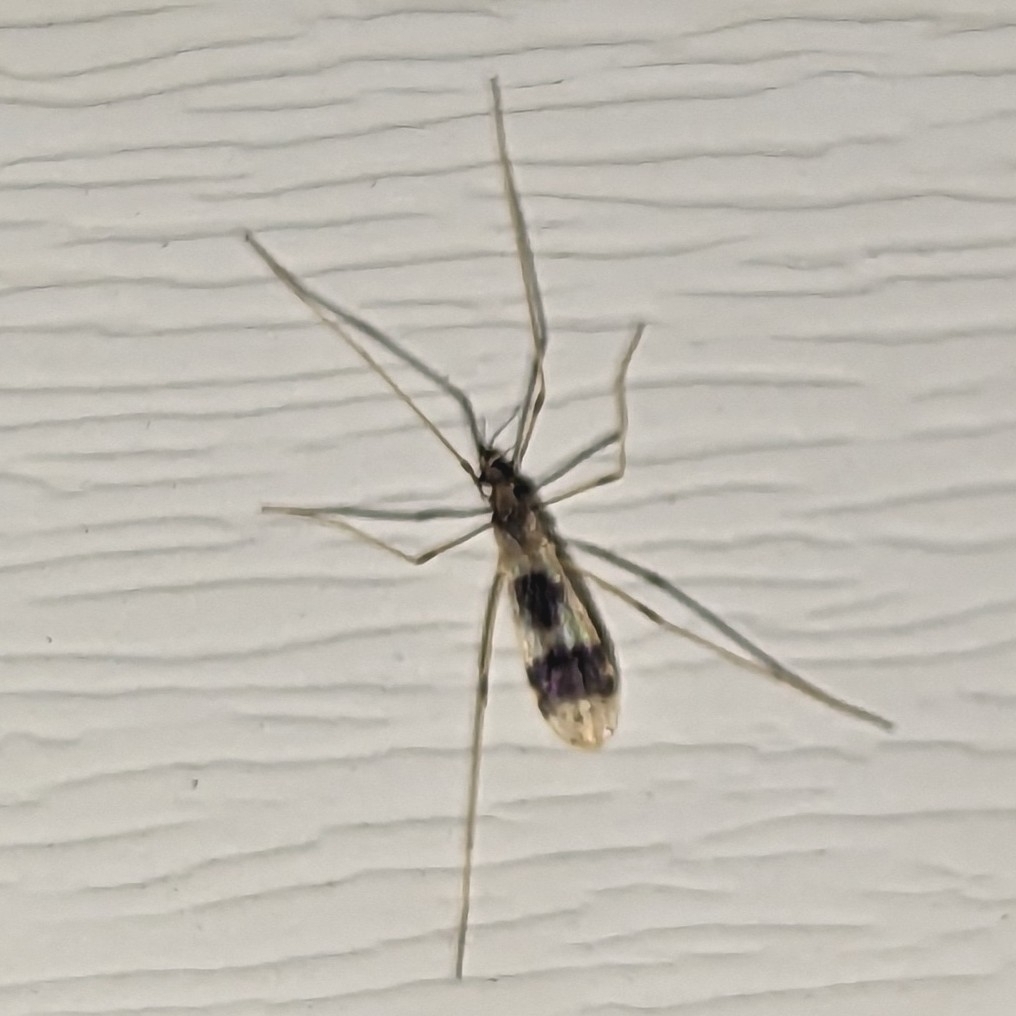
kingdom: Animalia
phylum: Arthropoda
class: Insecta
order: Diptera
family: Limoniidae
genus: Ilisia
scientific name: Ilisia venusta
